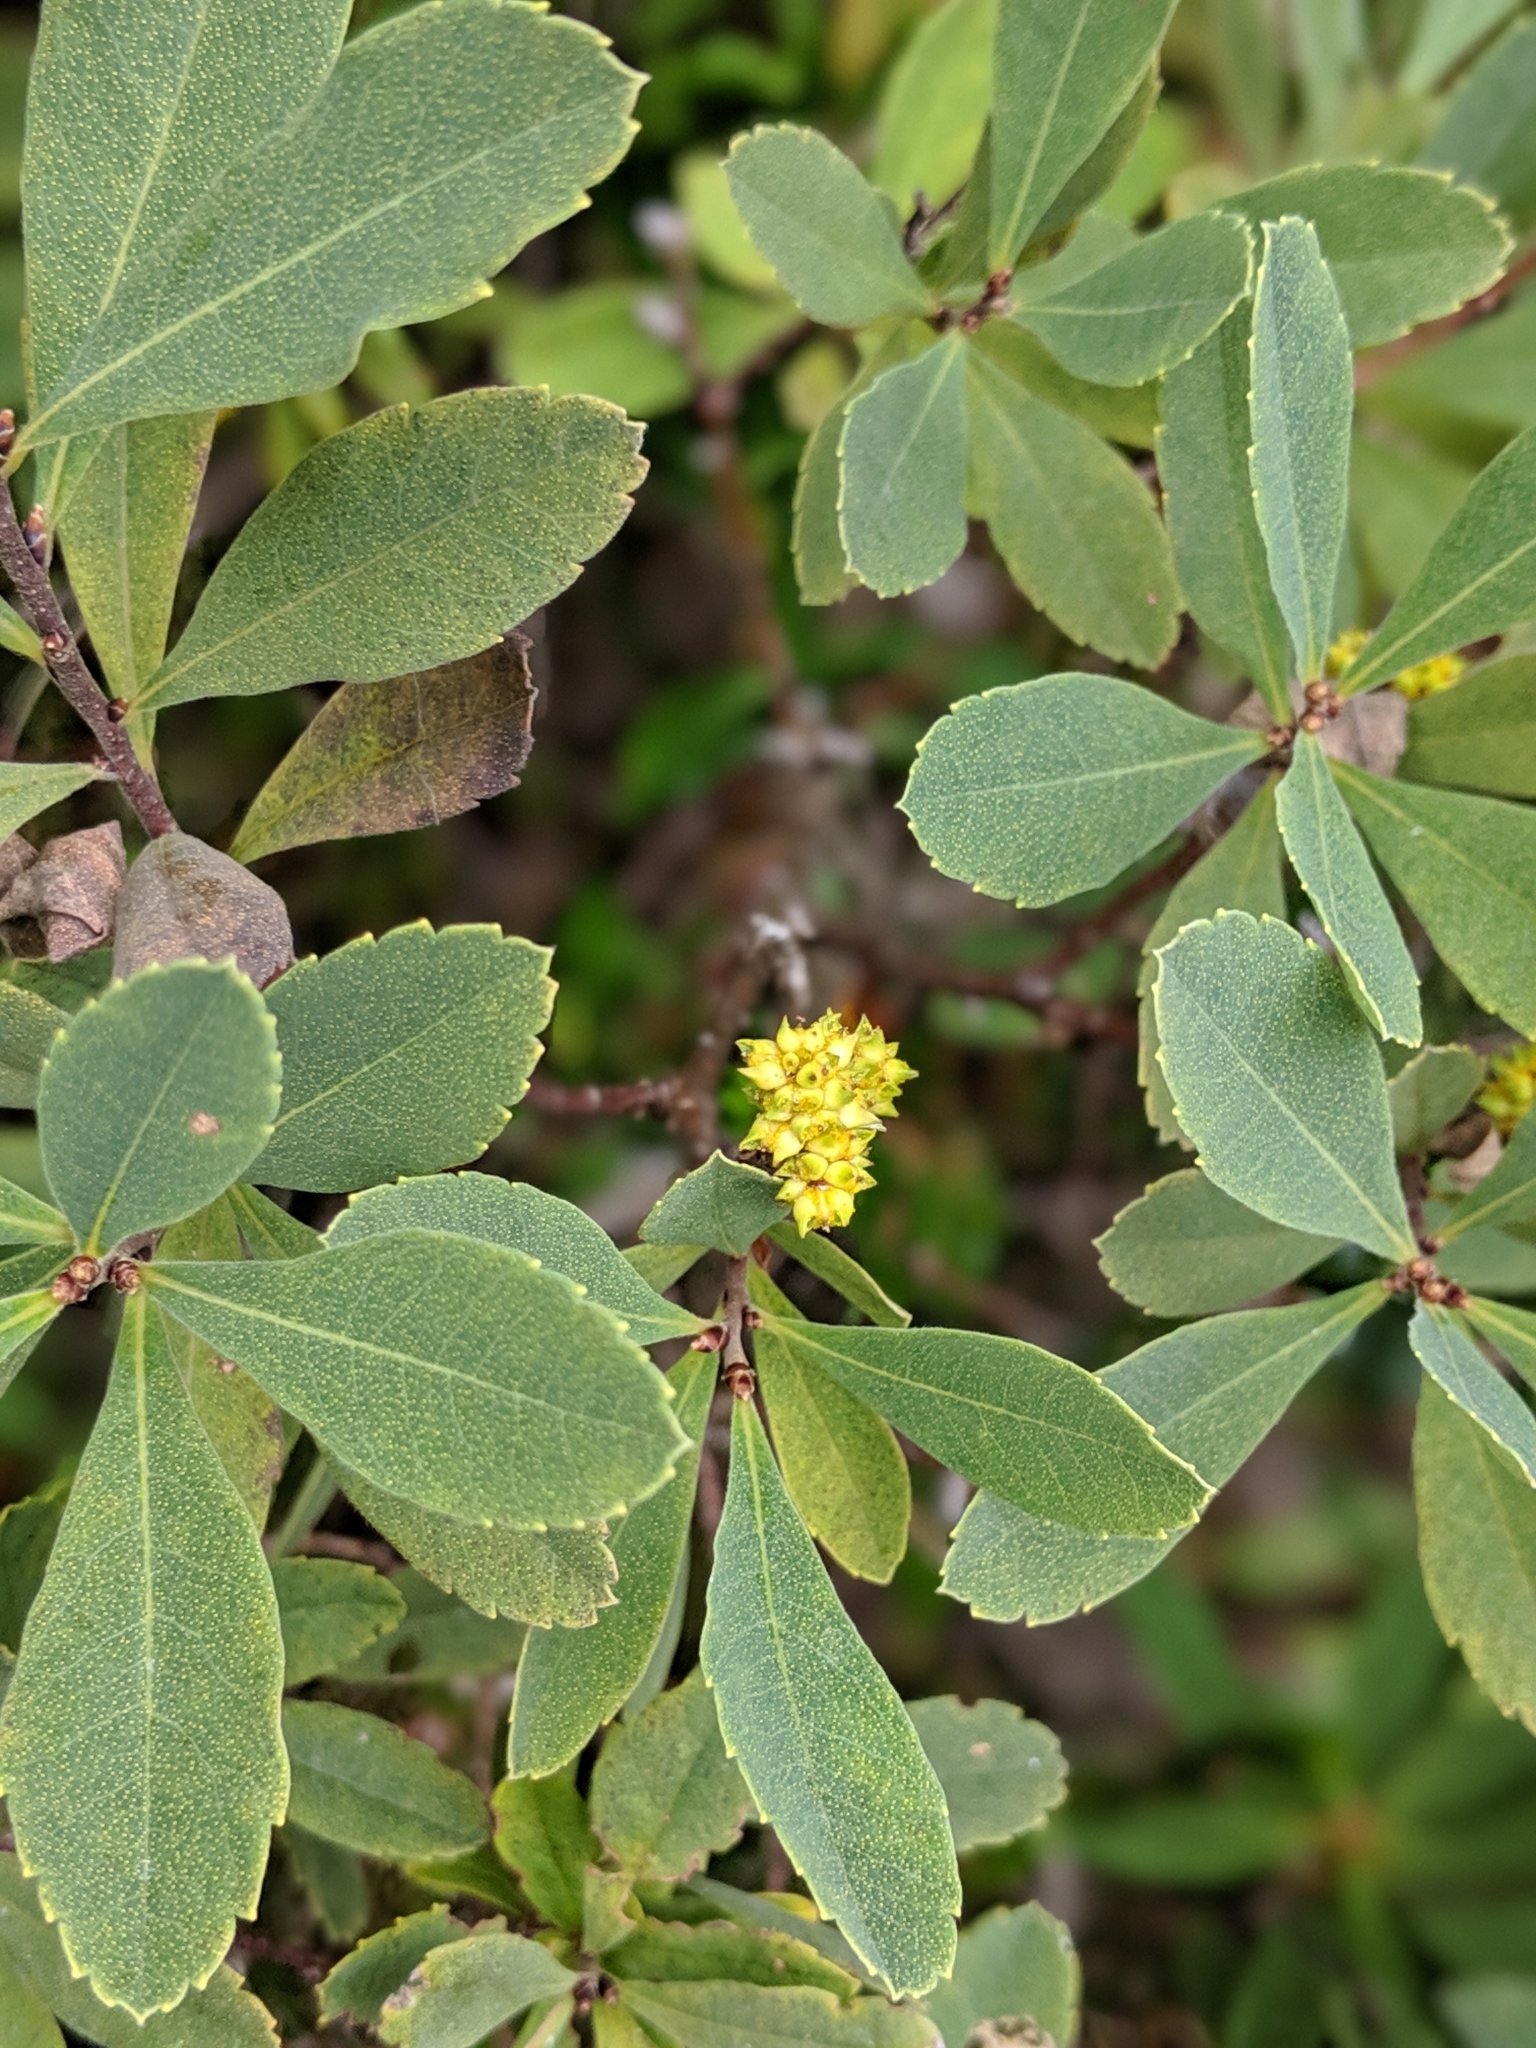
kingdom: Plantae
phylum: Tracheophyta
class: Magnoliopsida
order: Fagales
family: Myricaceae
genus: Myrica
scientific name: Myrica gale
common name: Sweet gale
